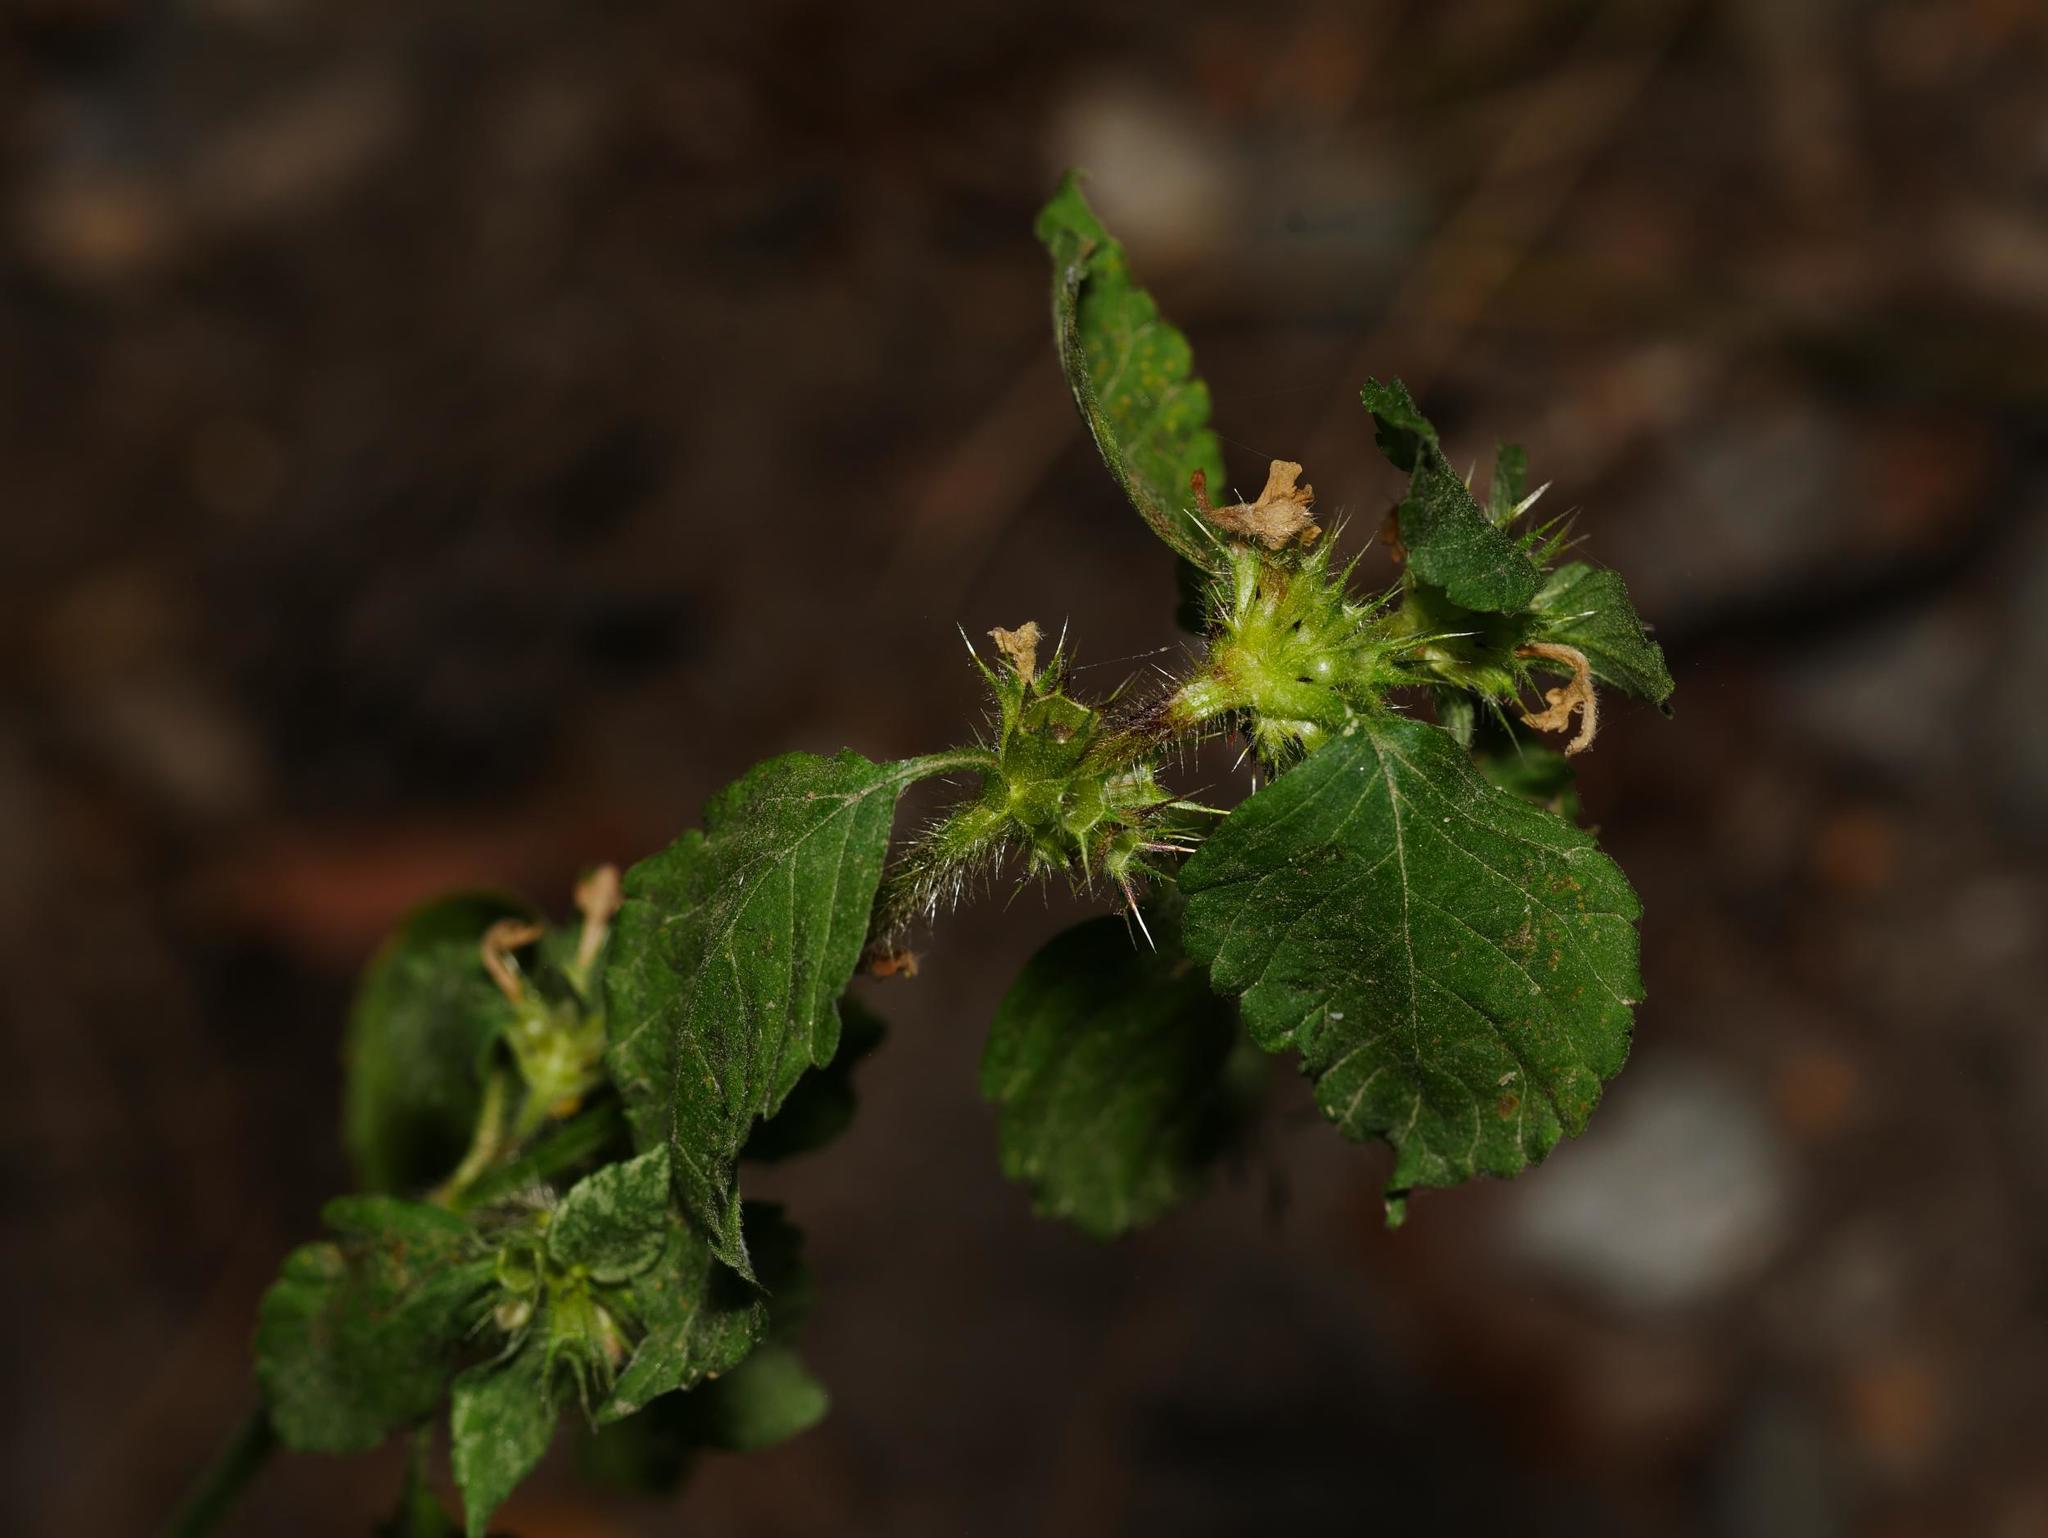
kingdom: Plantae
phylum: Tracheophyta
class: Magnoliopsida
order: Lamiales
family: Lamiaceae
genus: Galeopsis
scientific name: Galeopsis tetrahit
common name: Common hemp-nettle
